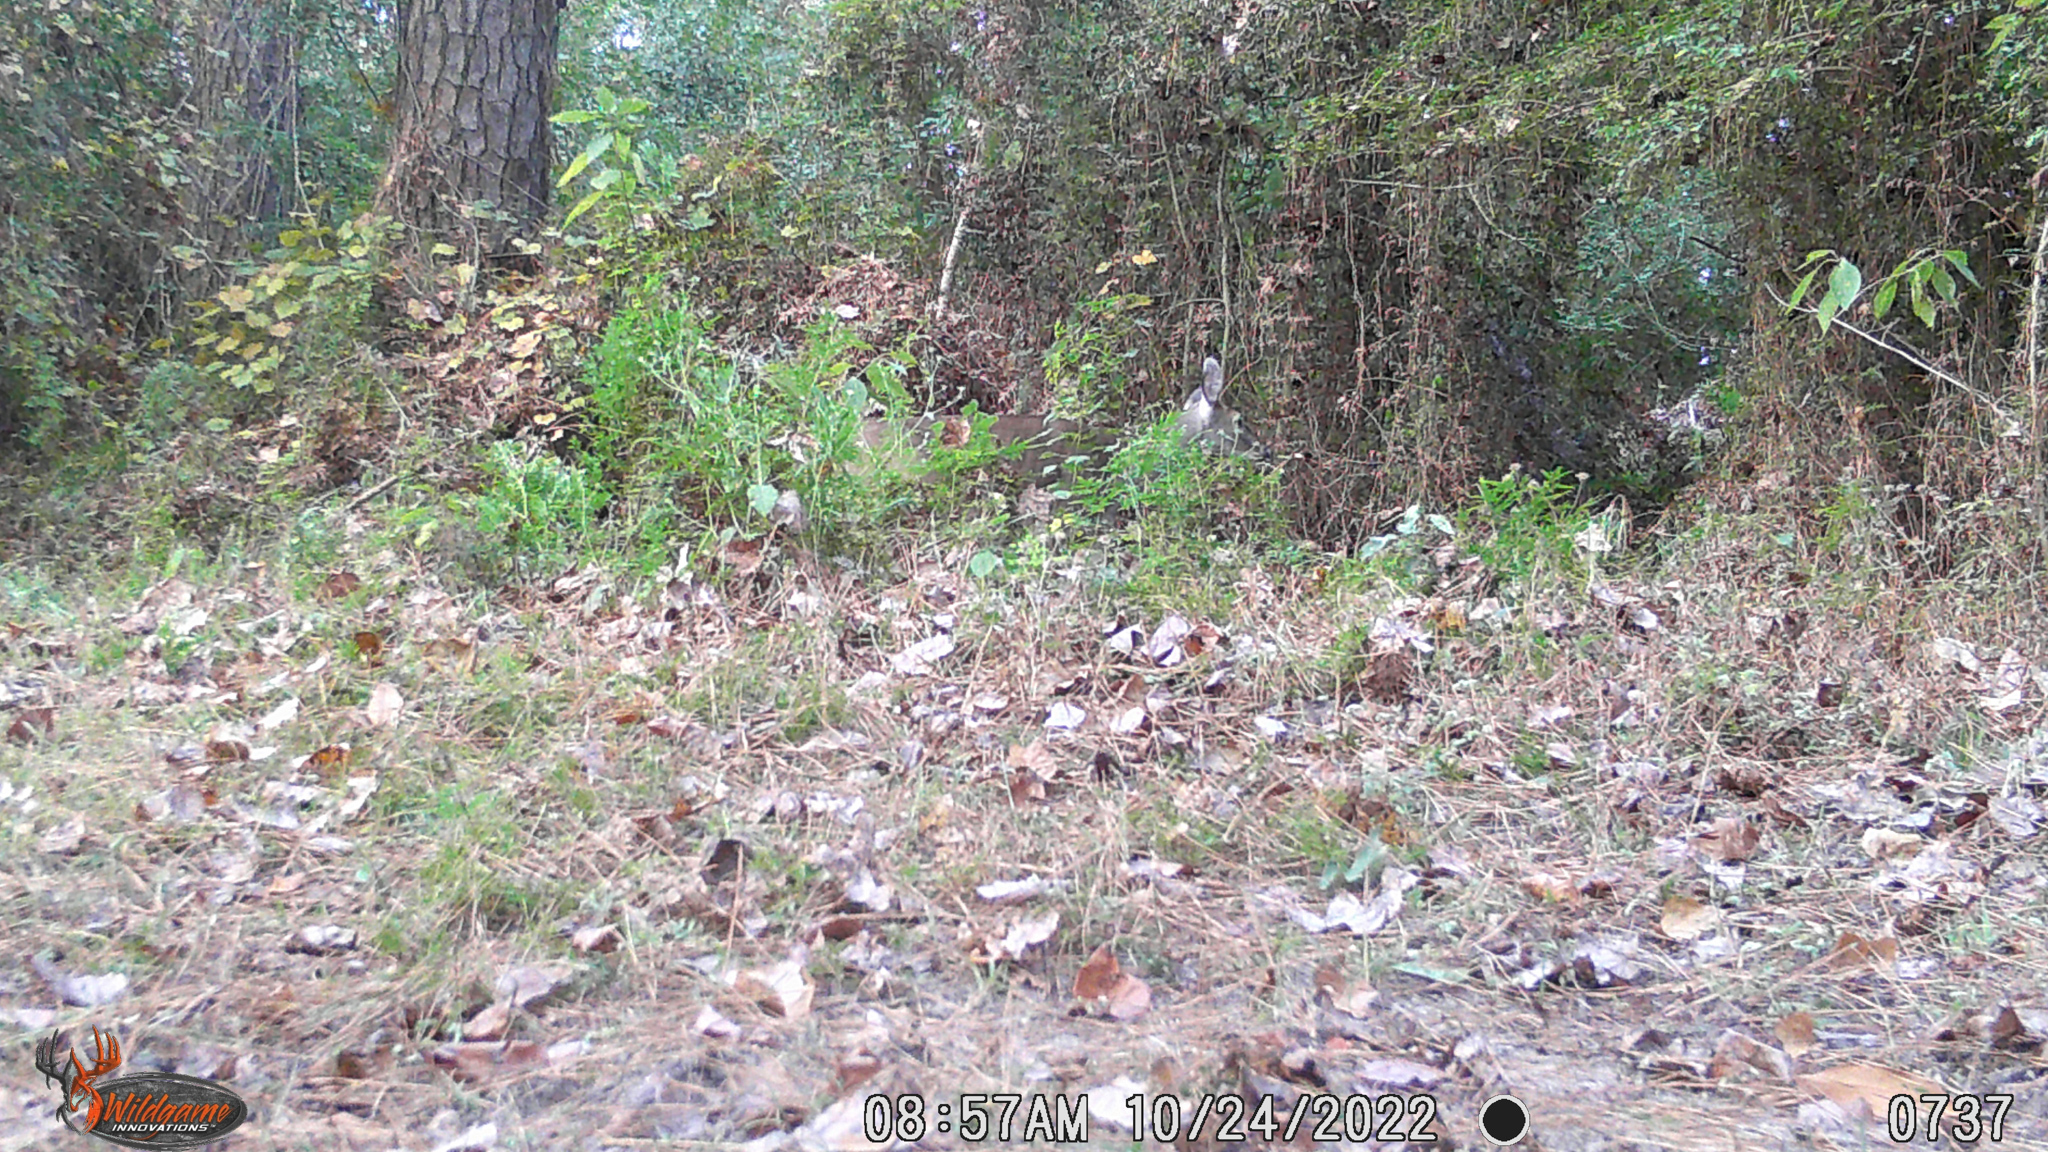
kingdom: Animalia
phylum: Chordata
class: Mammalia
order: Artiodactyla
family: Cervidae
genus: Odocoileus
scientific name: Odocoileus virginianus
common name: White-tailed deer
